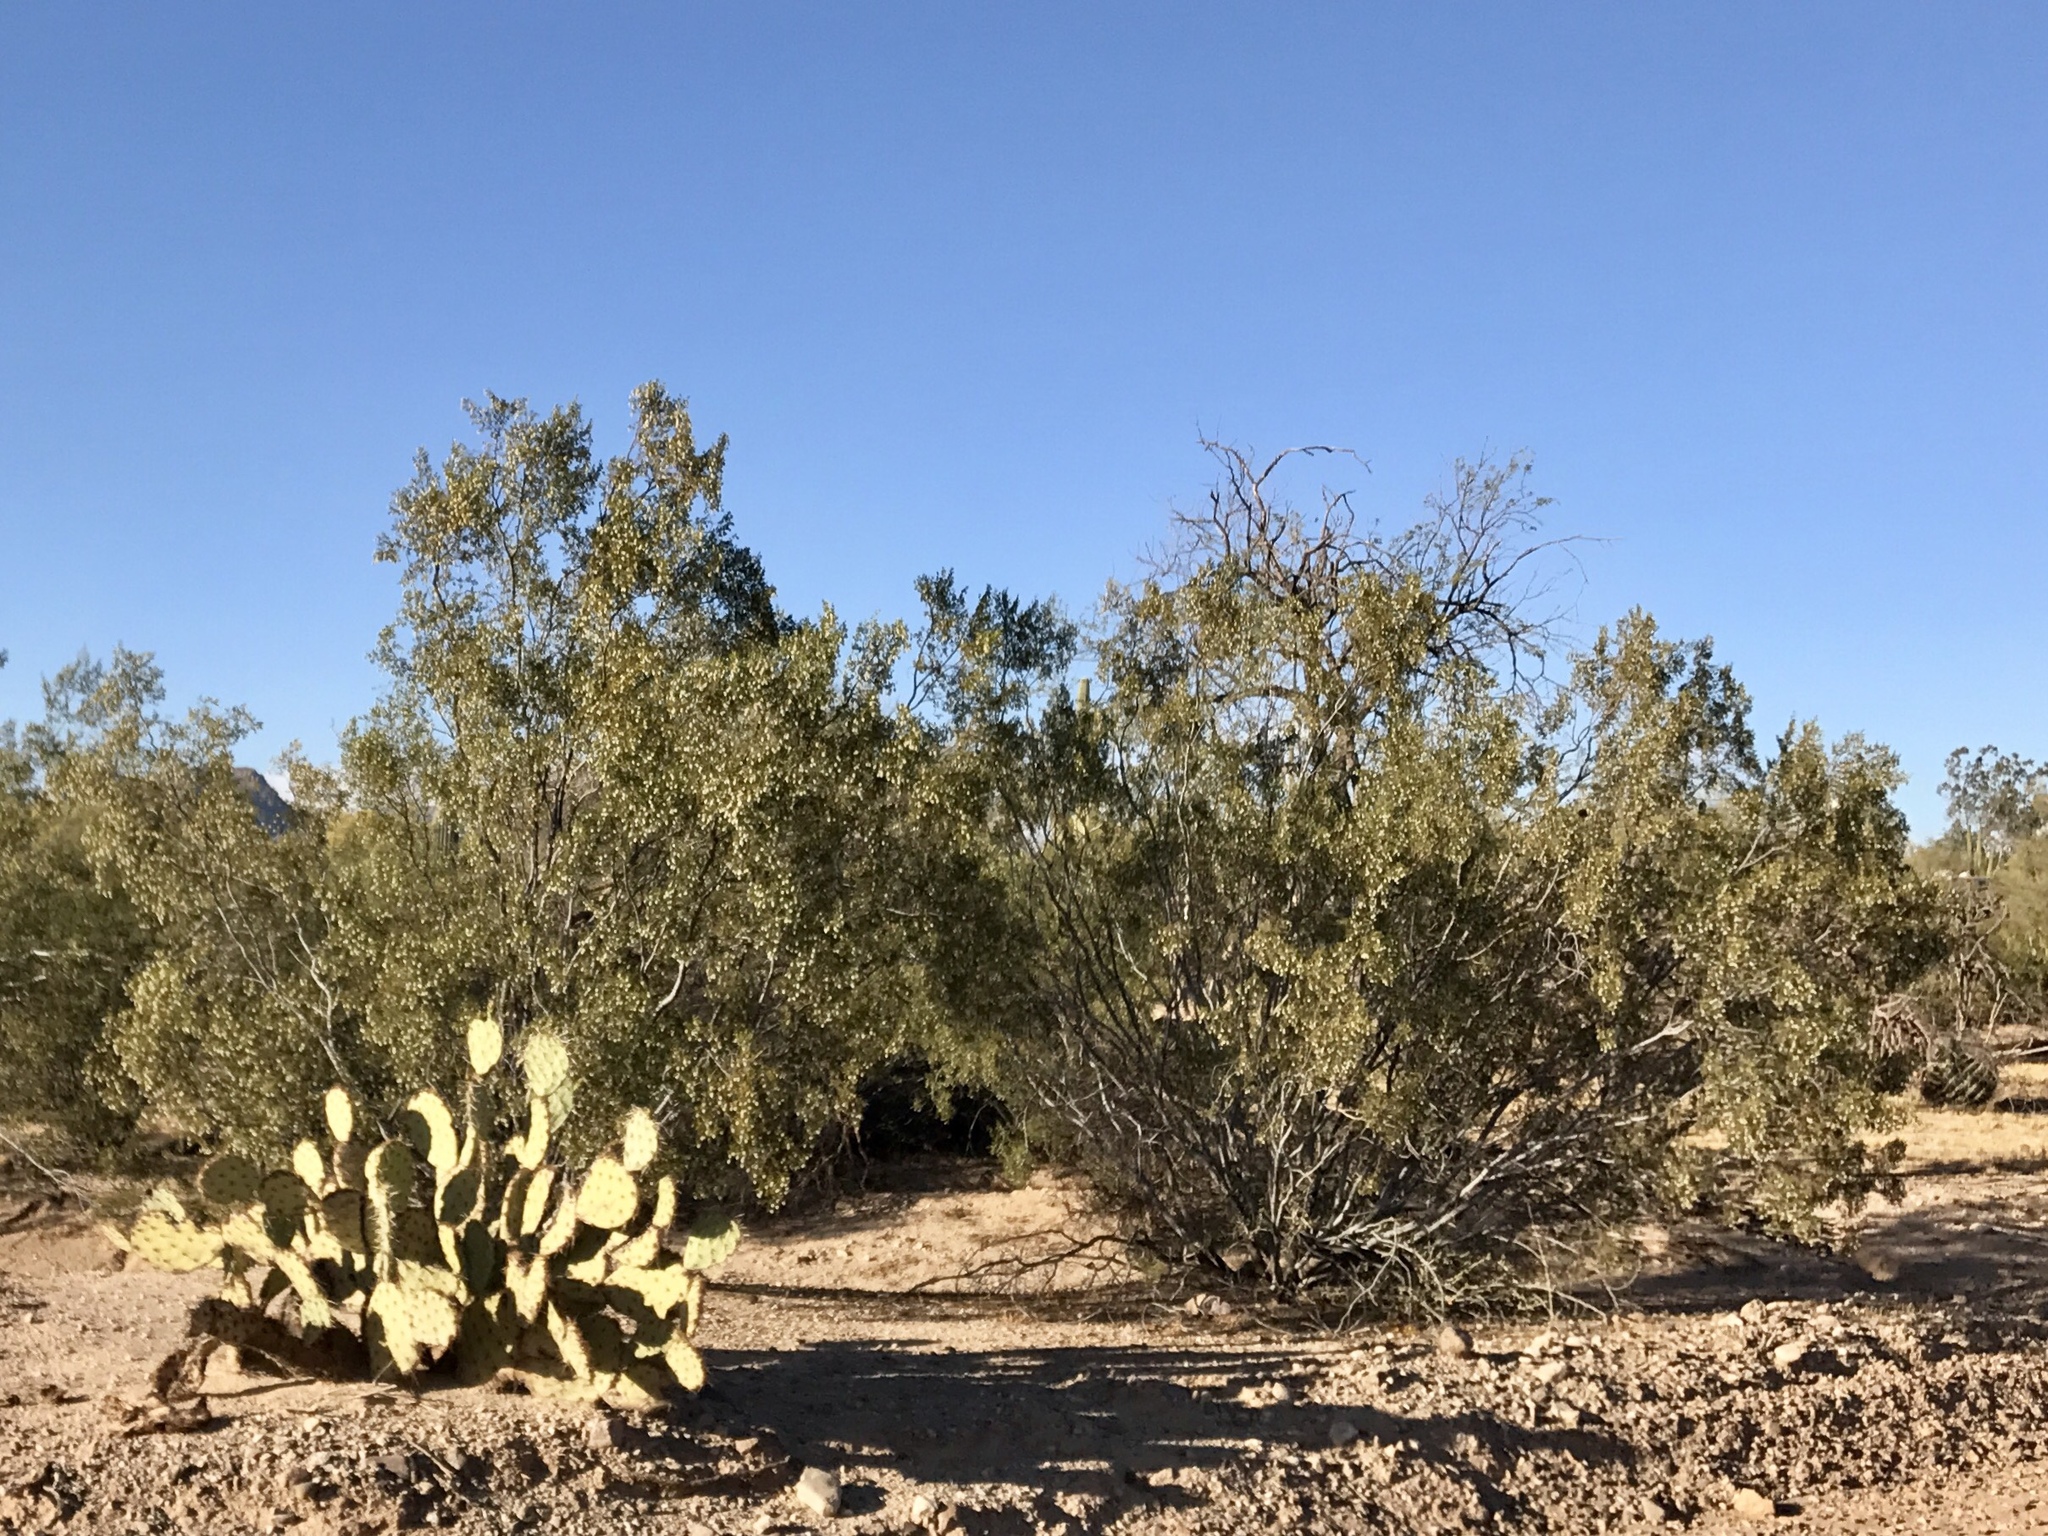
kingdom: Plantae
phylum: Tracheophyta
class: Magnoliopsida
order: Zygophyllales
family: Zygophyllaceae
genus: Larrea
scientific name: Larrea tridentata
